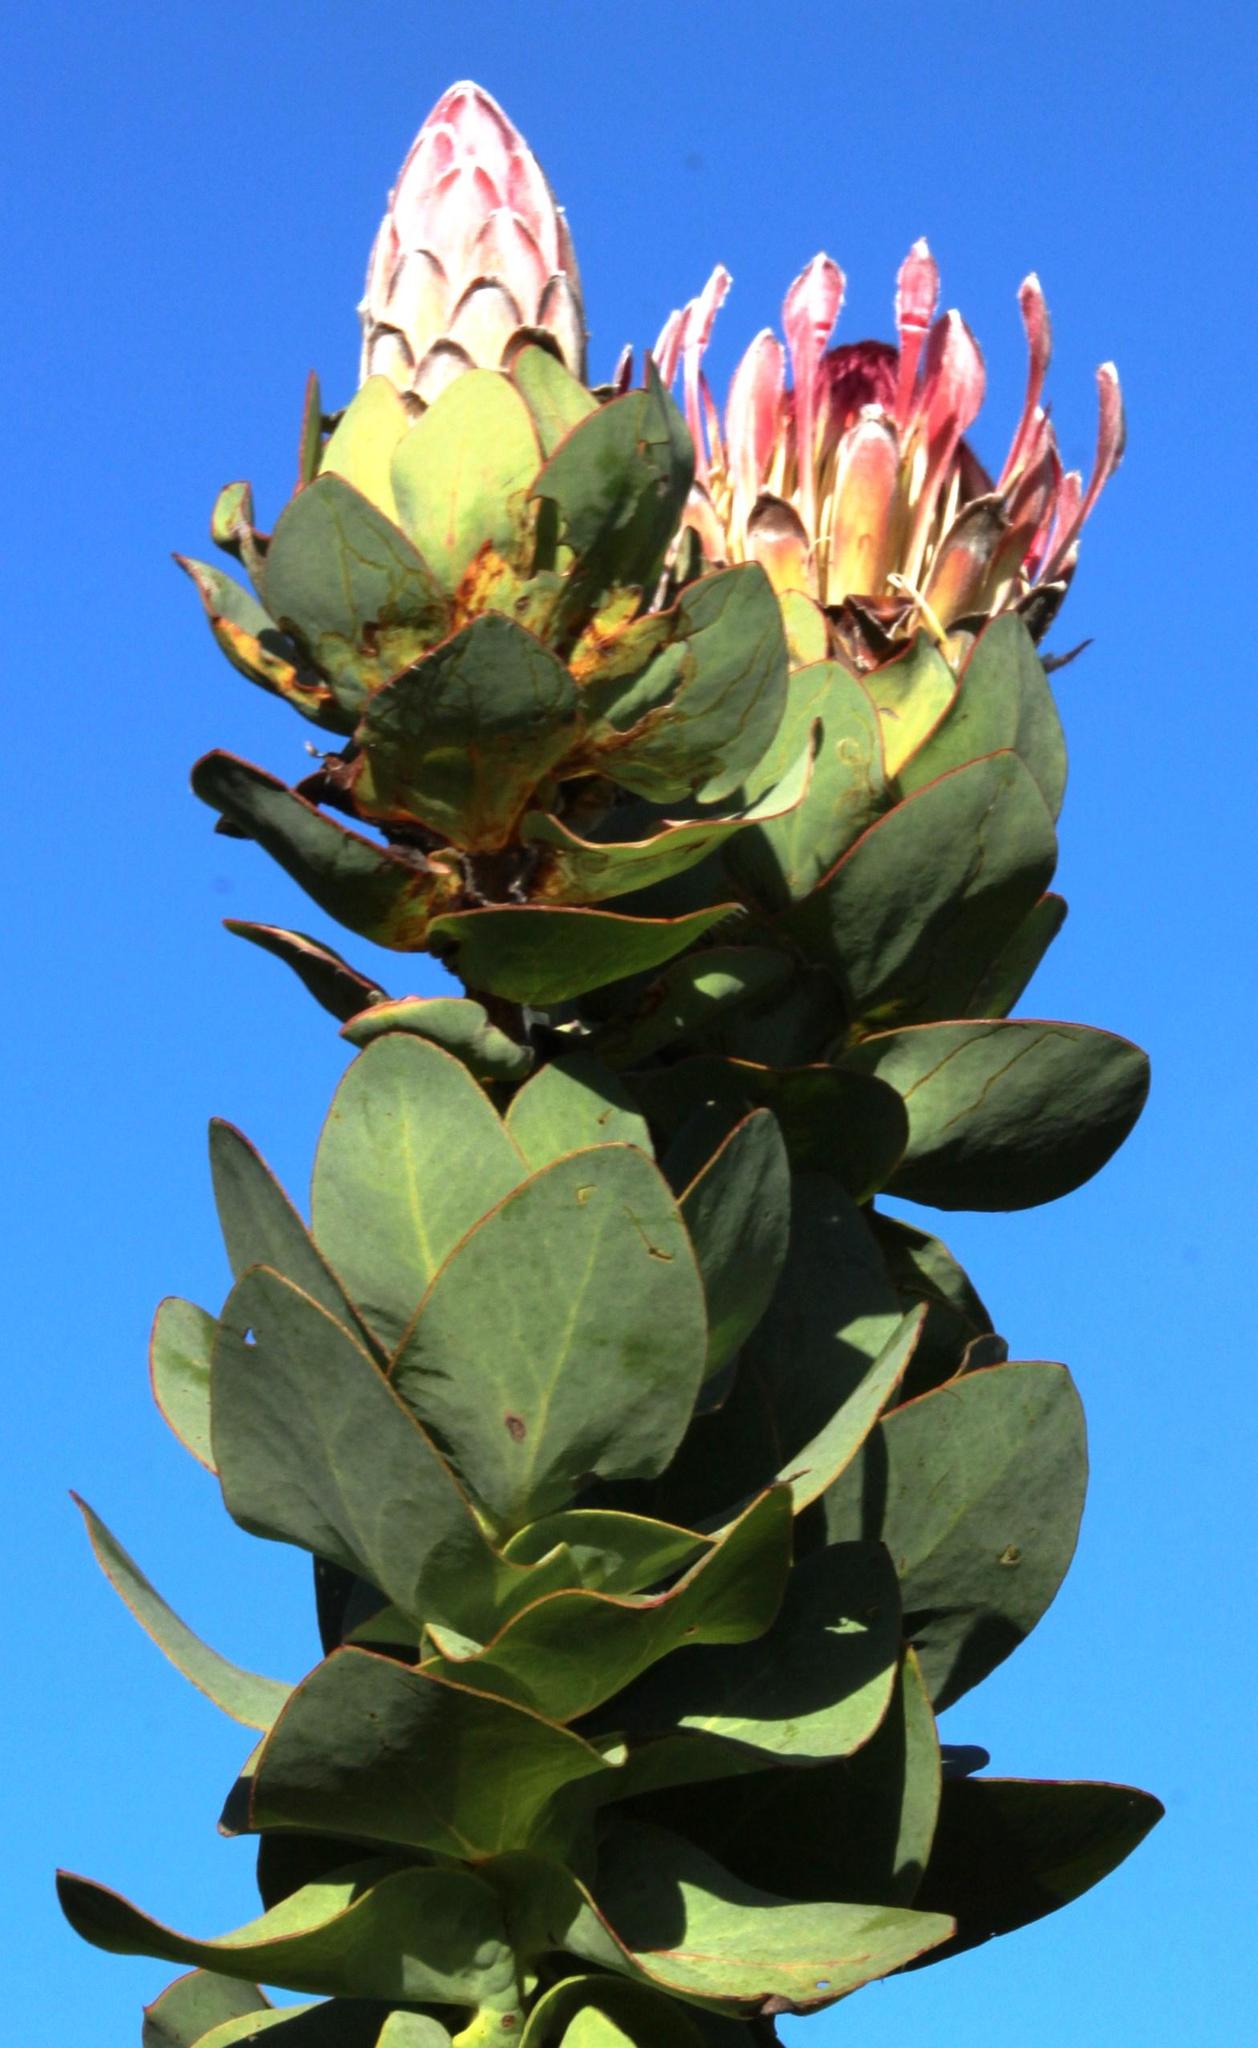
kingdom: Plantae
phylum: Tracheophyta
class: Magnoliopsida
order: Proteales
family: Proteaceae
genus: Protea
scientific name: Protea eximia
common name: Broad-leaved sugarbush
